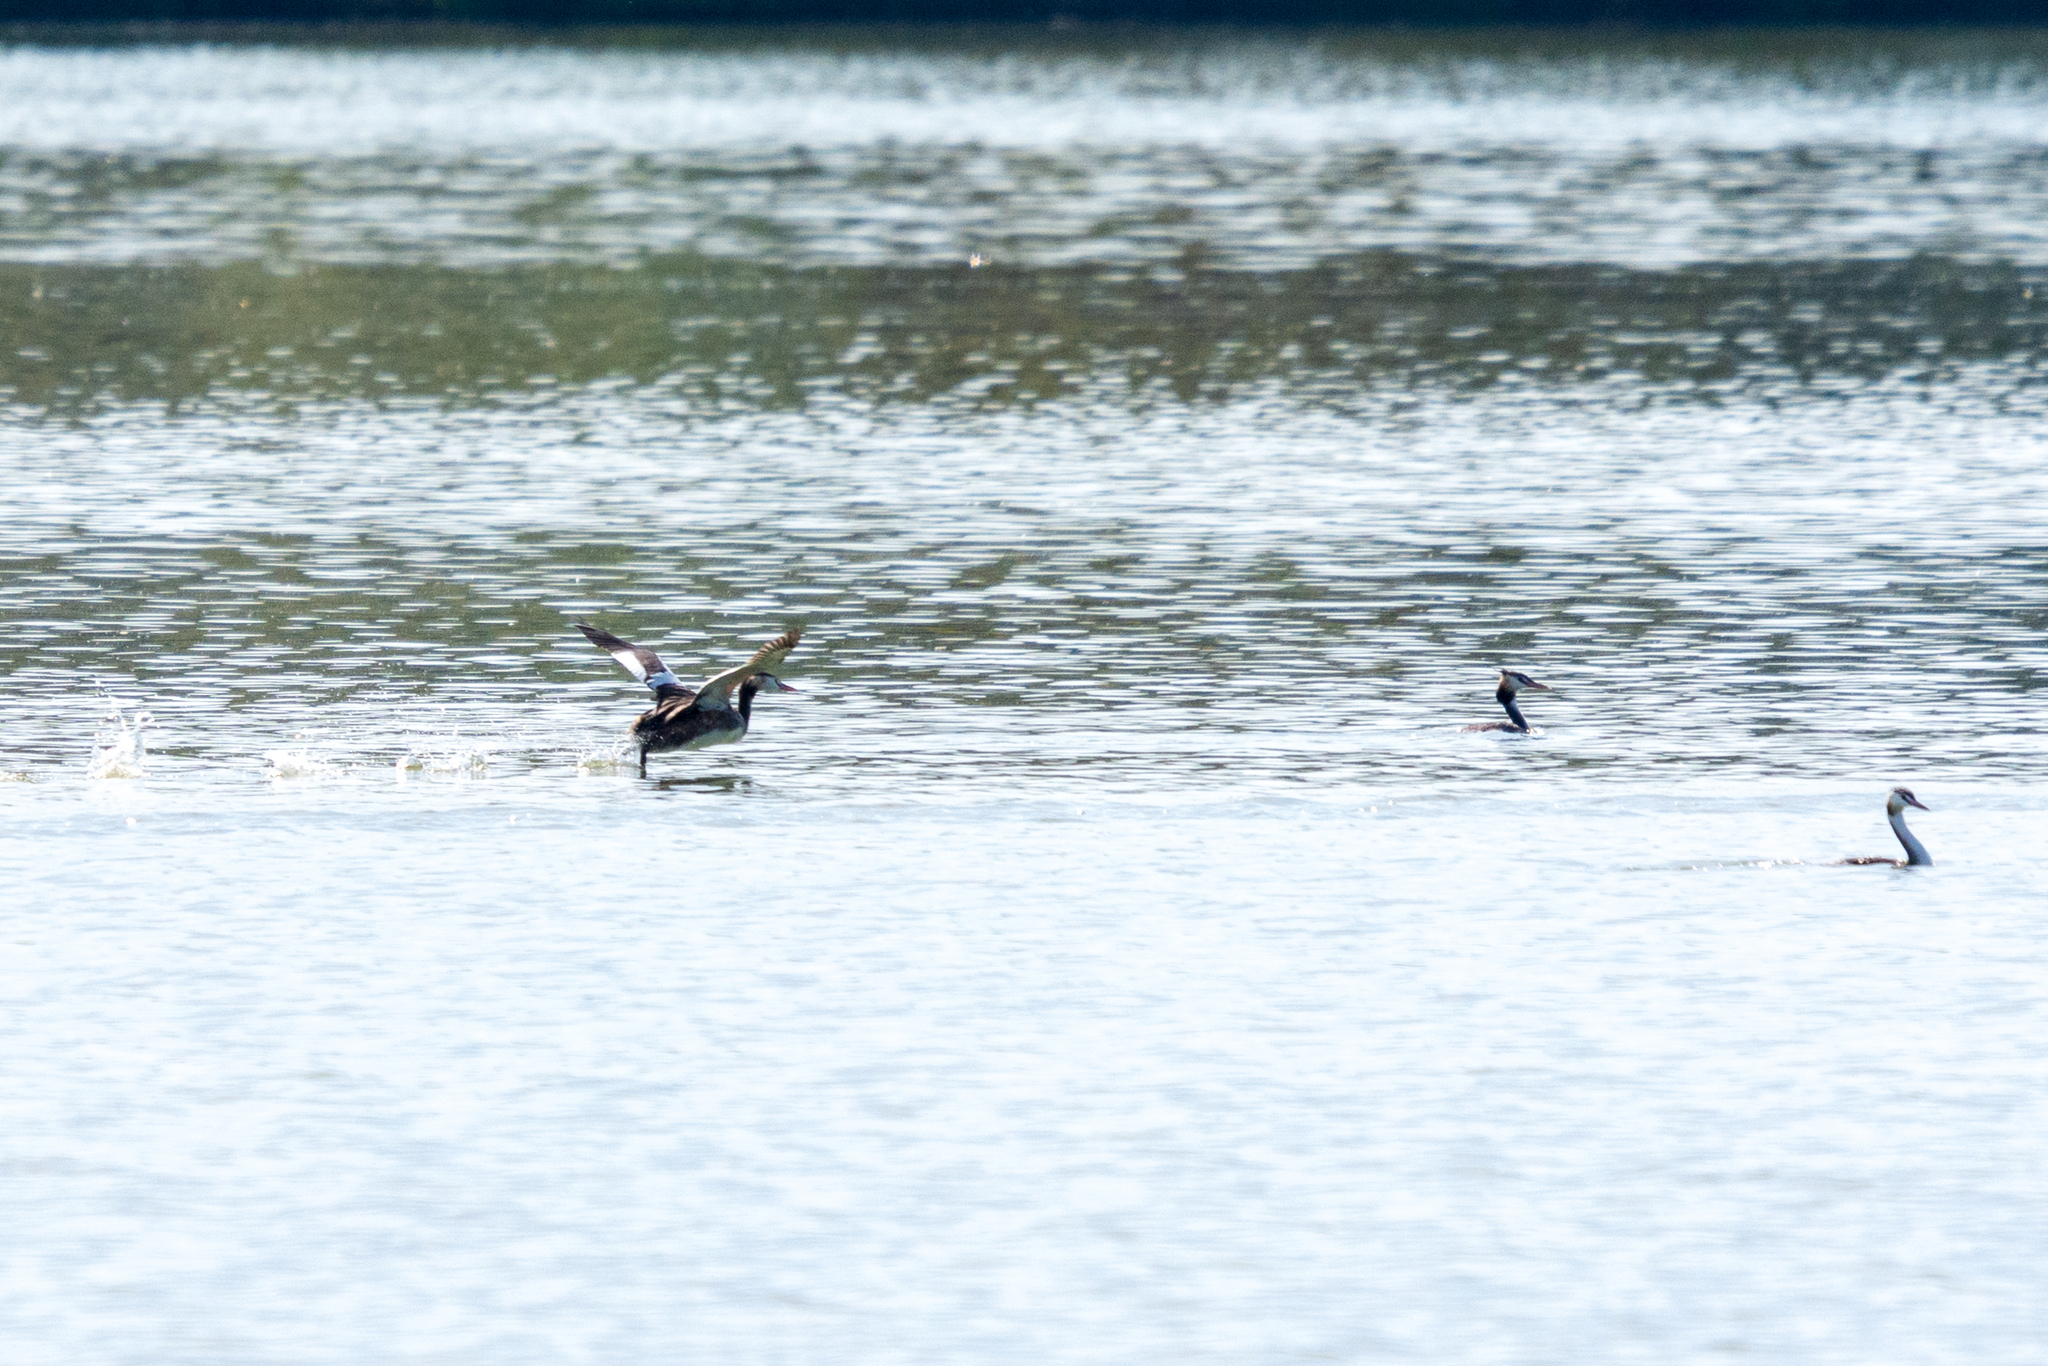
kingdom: Animalia
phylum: Chordata
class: Aves
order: Podicipediformes
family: Podicipedidae
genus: Podiceps
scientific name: Podiceps cristatus
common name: Great crested grebe
